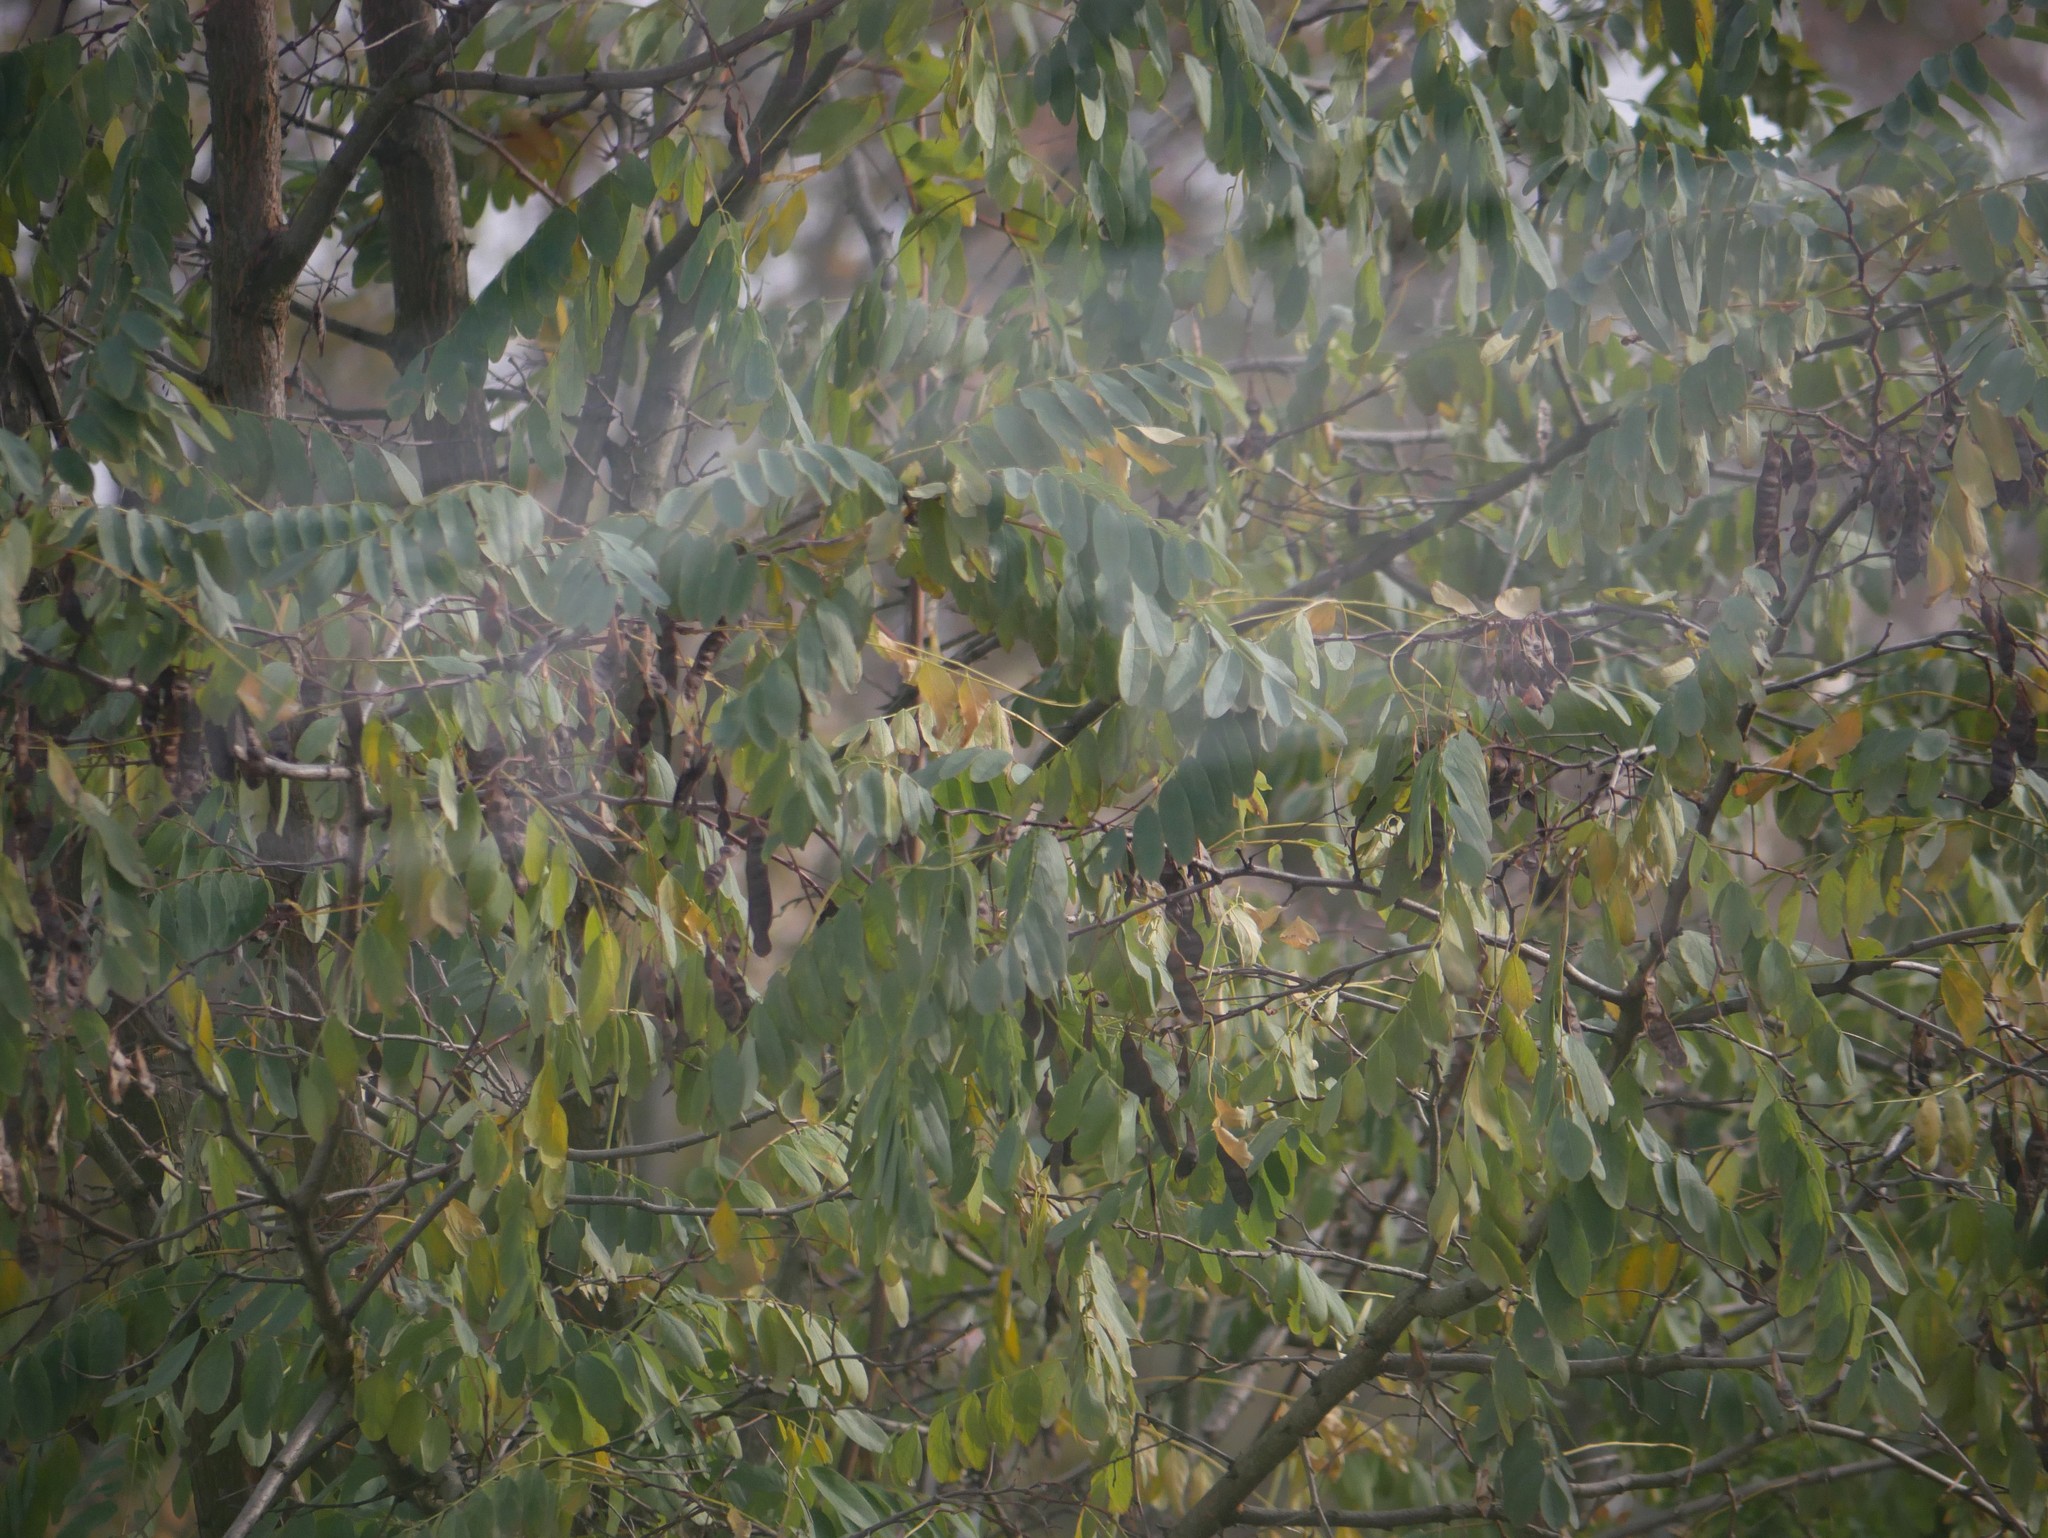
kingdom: Plantae
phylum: Tracheophyta
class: Magnoliopsida
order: Fabales
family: Fabaceae
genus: Robinia
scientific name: Robinia pseudoacacia
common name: Black locust
